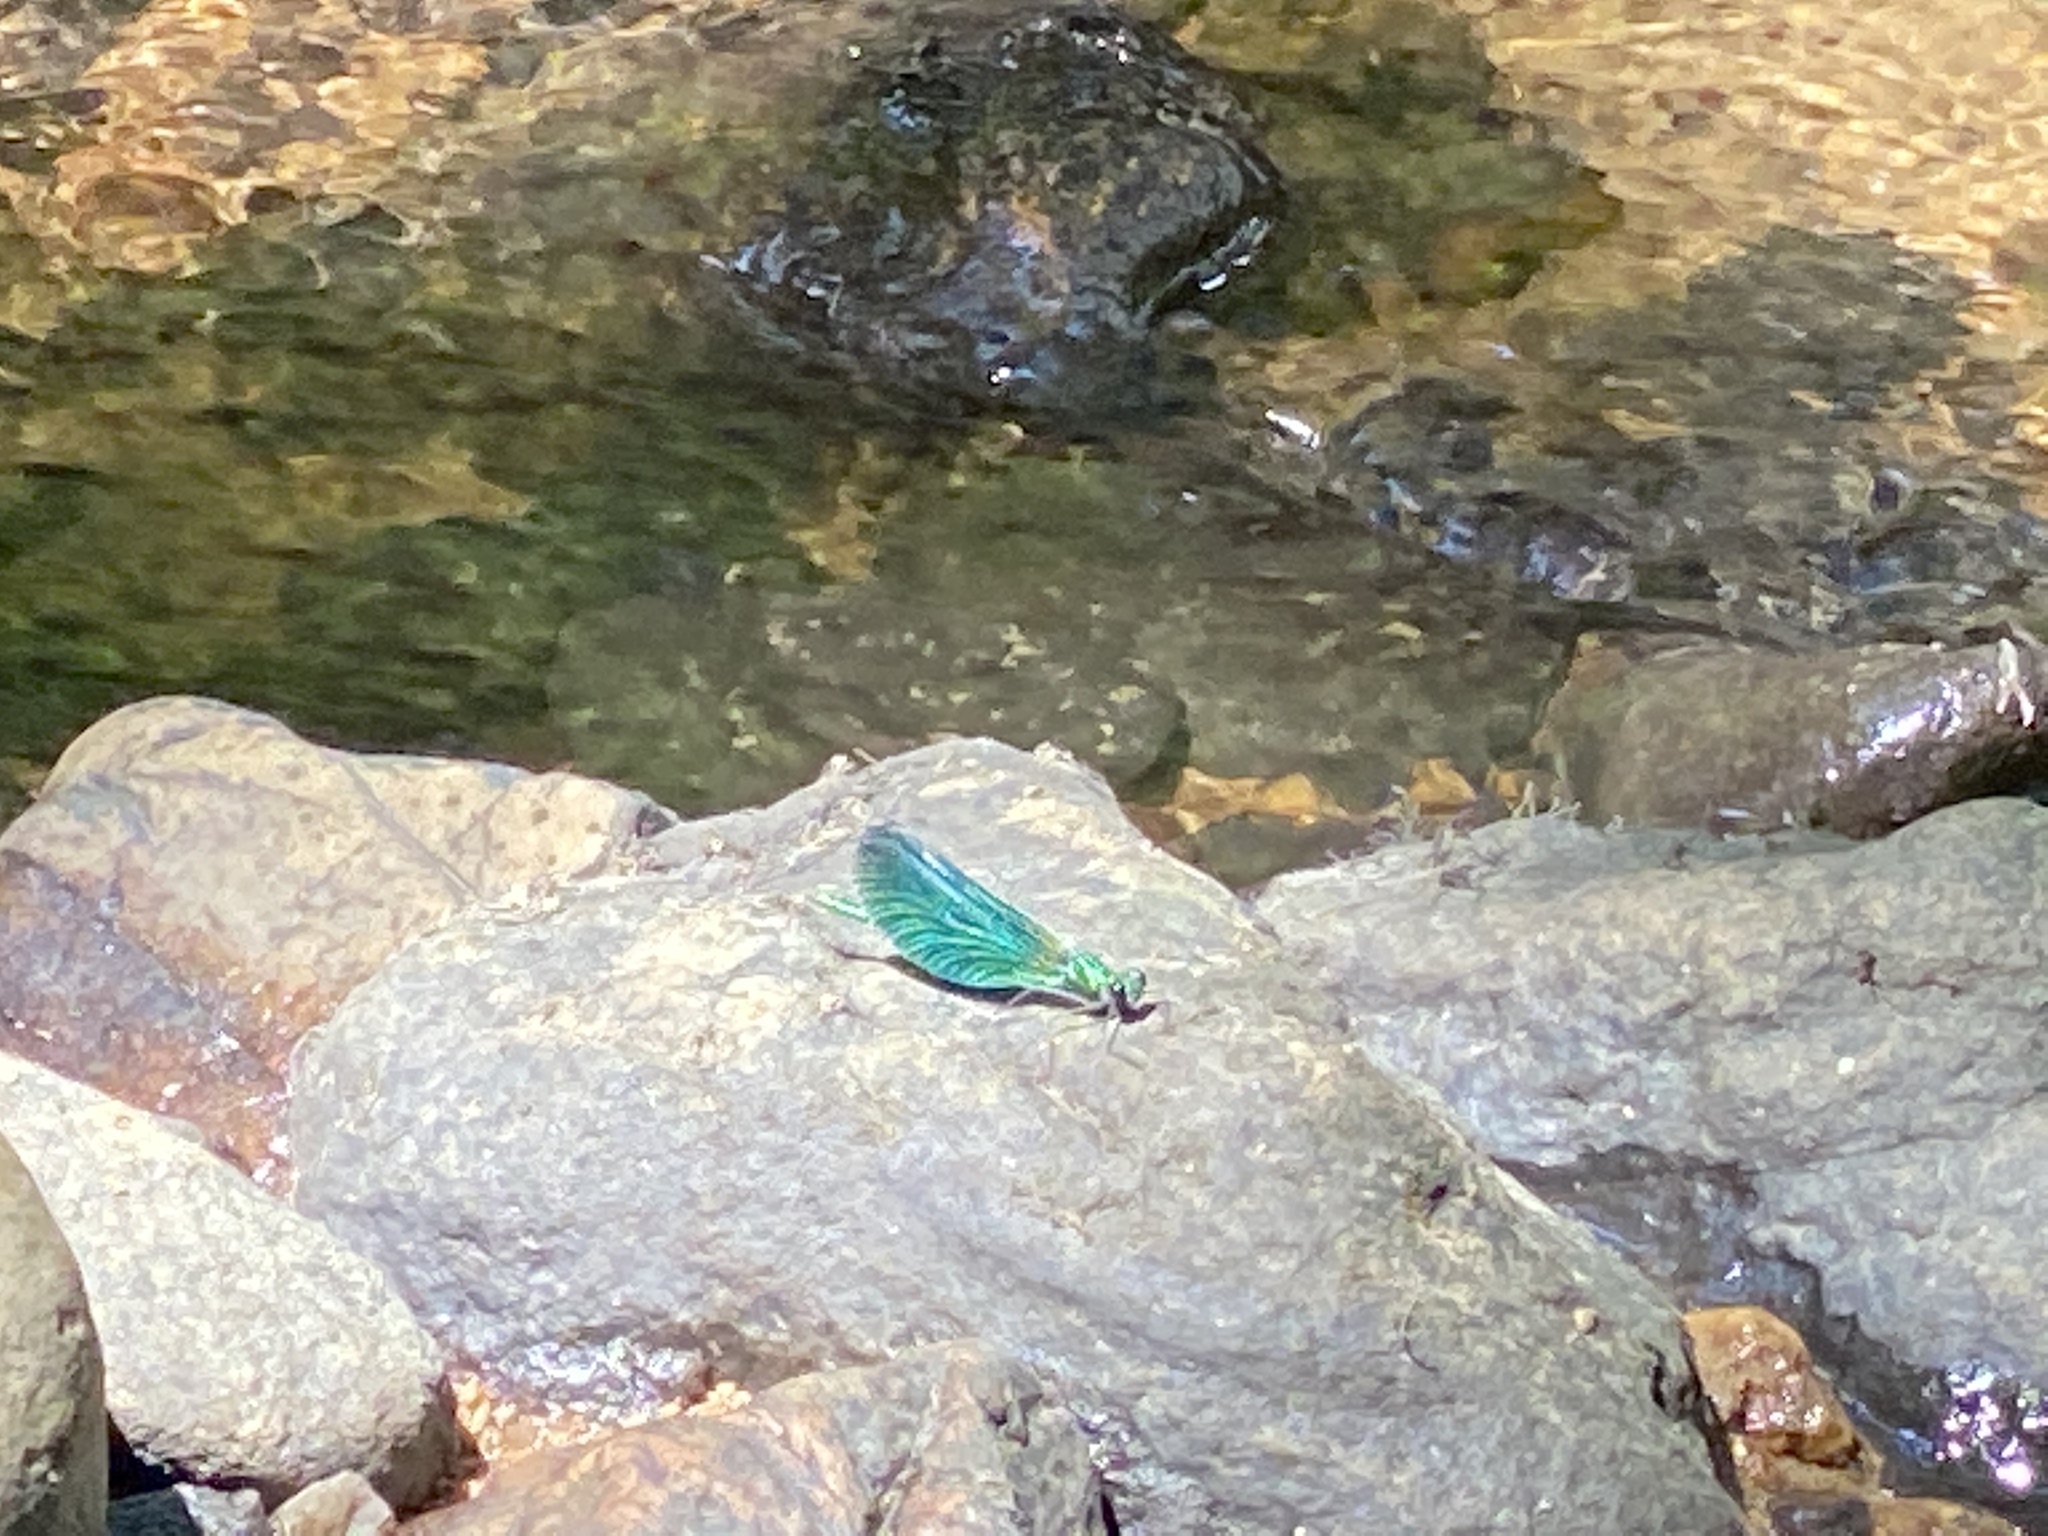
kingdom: Animalia
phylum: Arthropoda
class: Insecta
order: Odonata
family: Calopterygidae
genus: Calopteryx
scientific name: Calopteryx virgo
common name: Beautiful demoiselle
